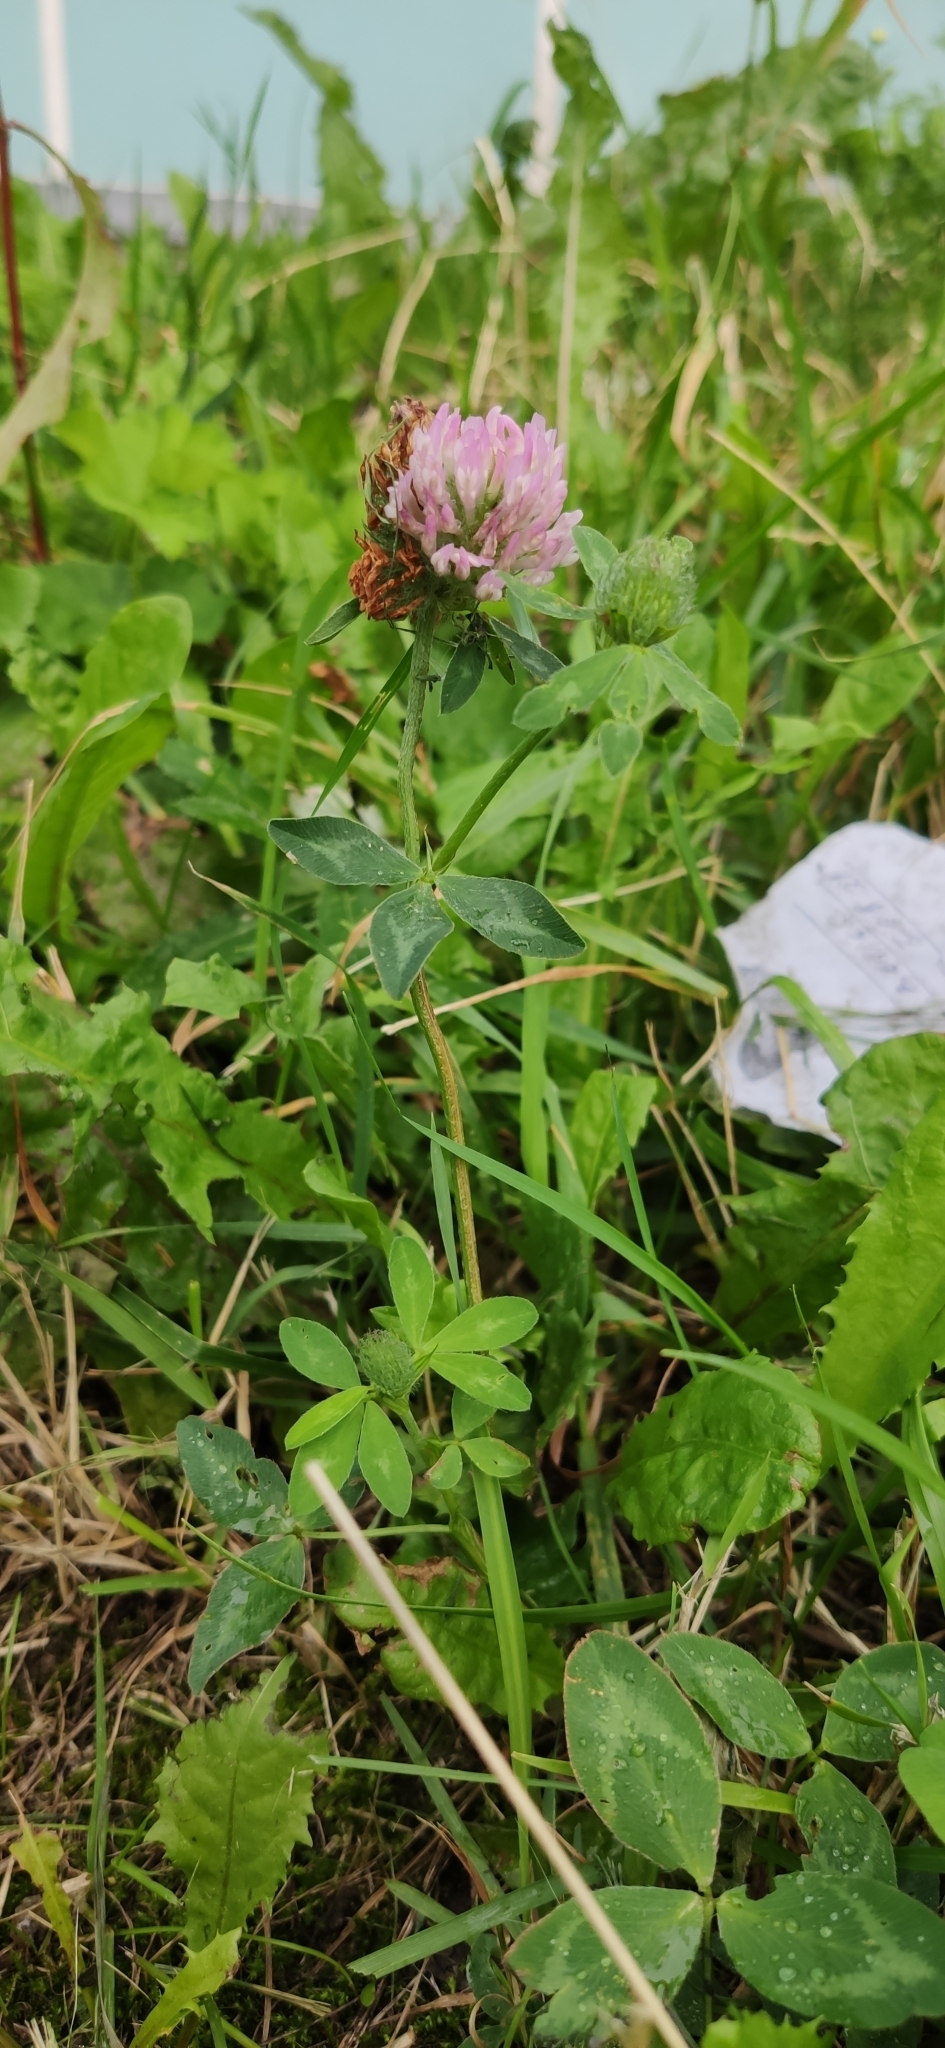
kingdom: Plantae
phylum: Tracheophyta
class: Magnoliopsida
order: Fabales
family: Fabaceae
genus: Trifolium
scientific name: Trifolium pratense
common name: Red clover
